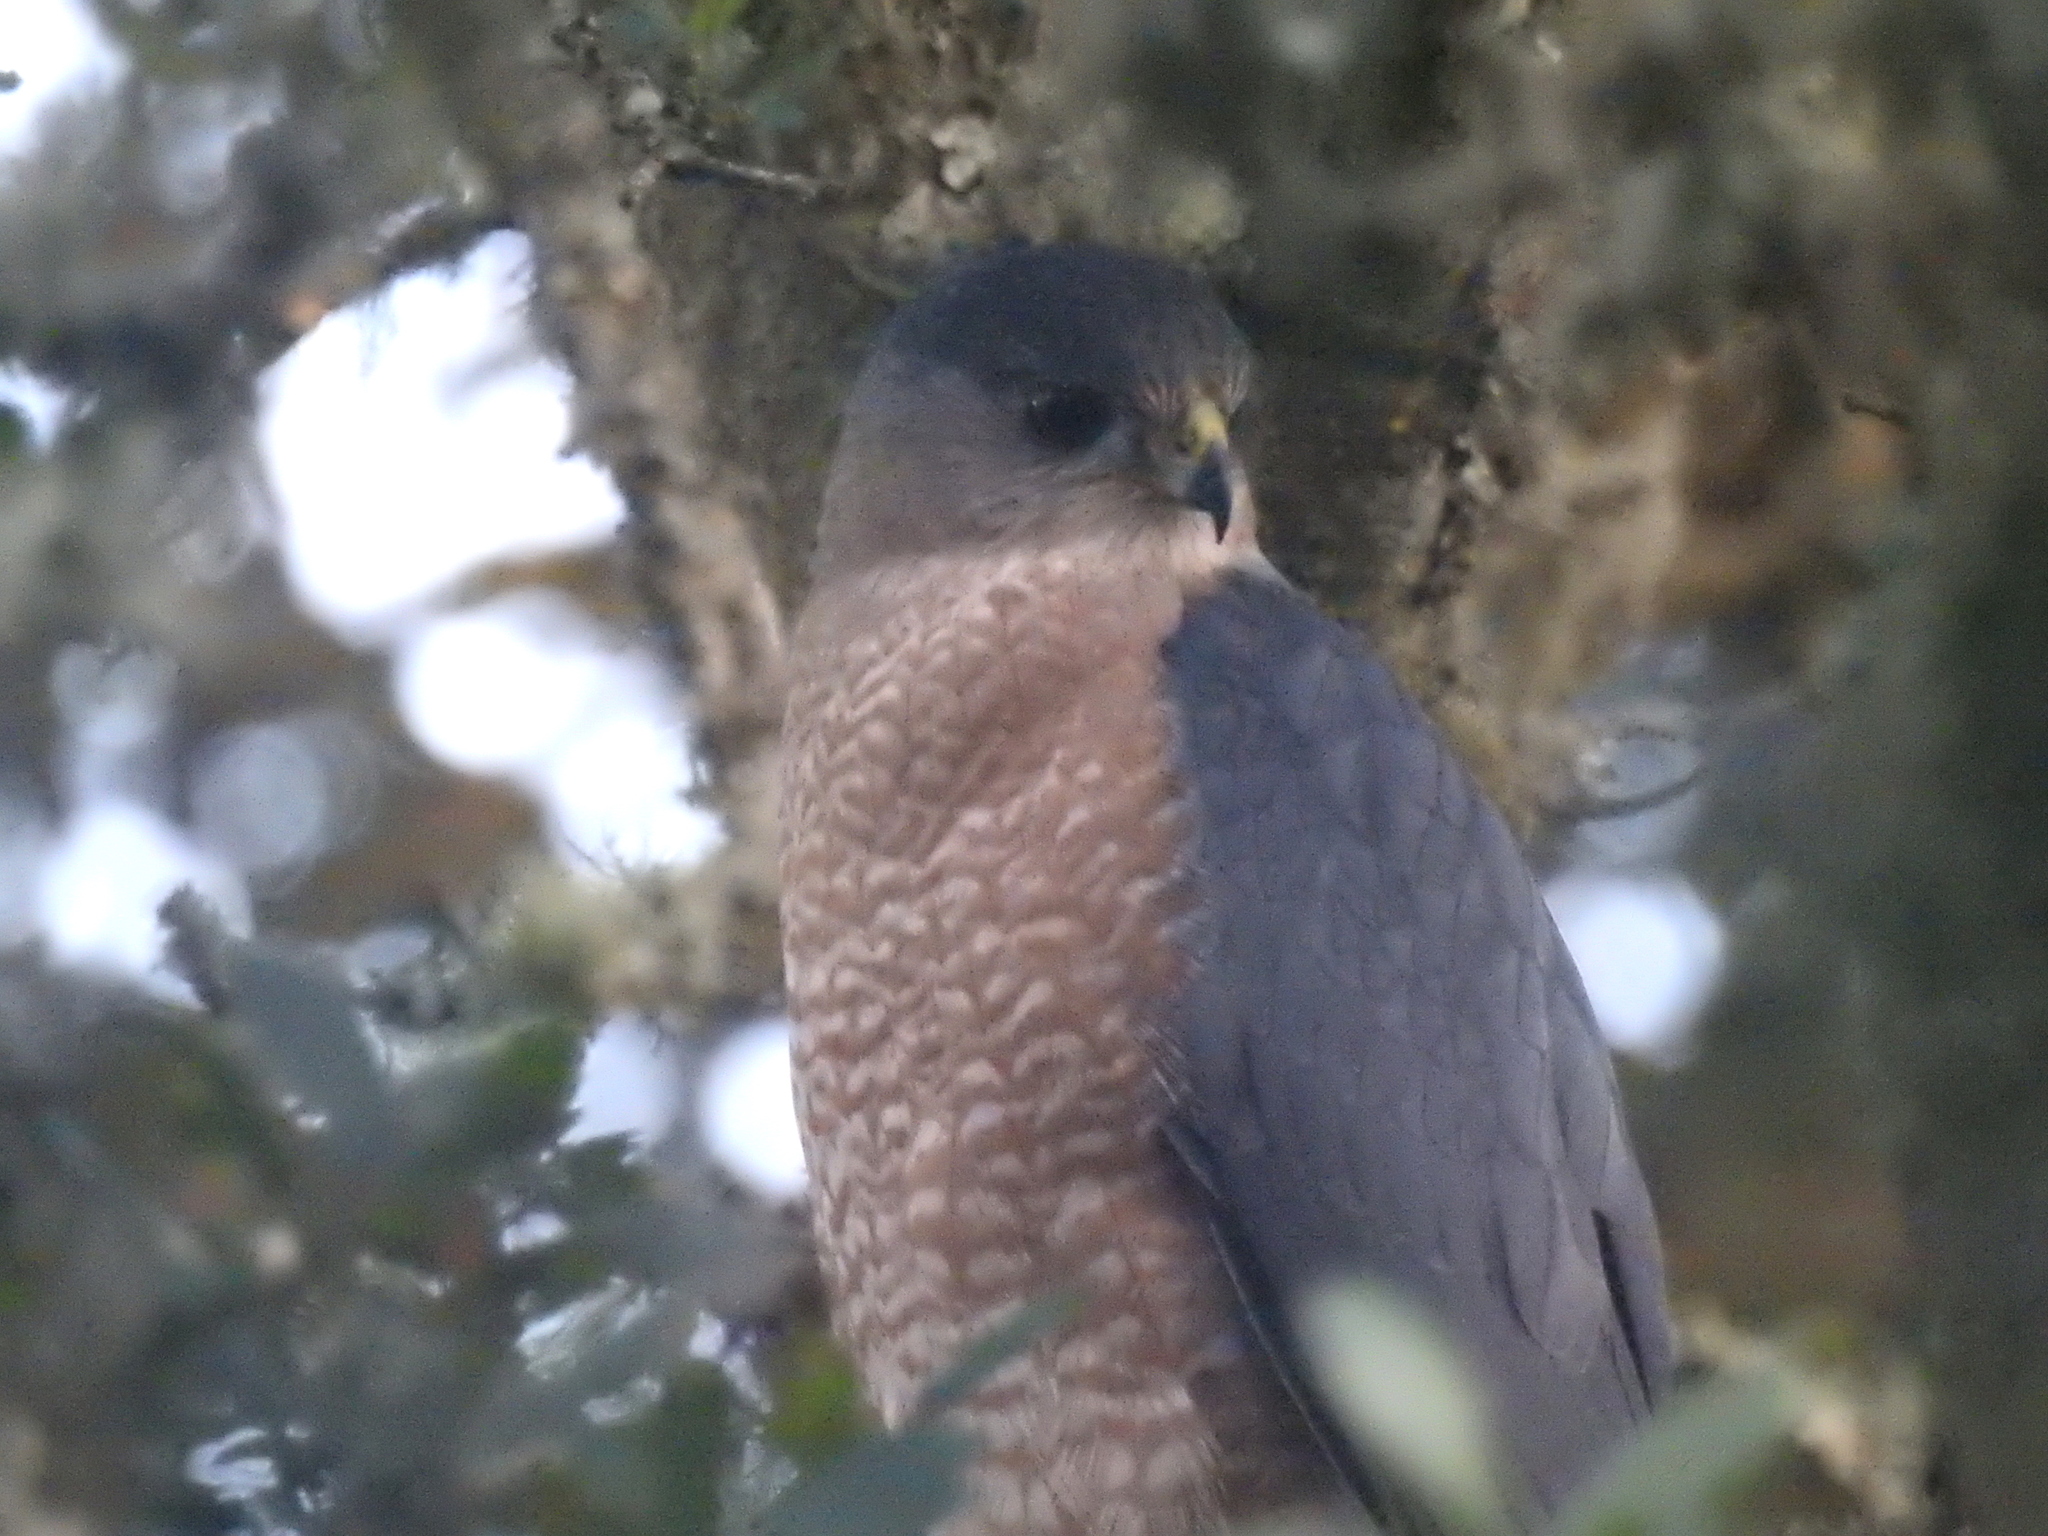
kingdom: Animalia
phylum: Chordata
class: Aves
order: Accipitriformes
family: Accipitridae
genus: Accipiter
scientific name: Accipiter cooperii
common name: Cooper's hawk
